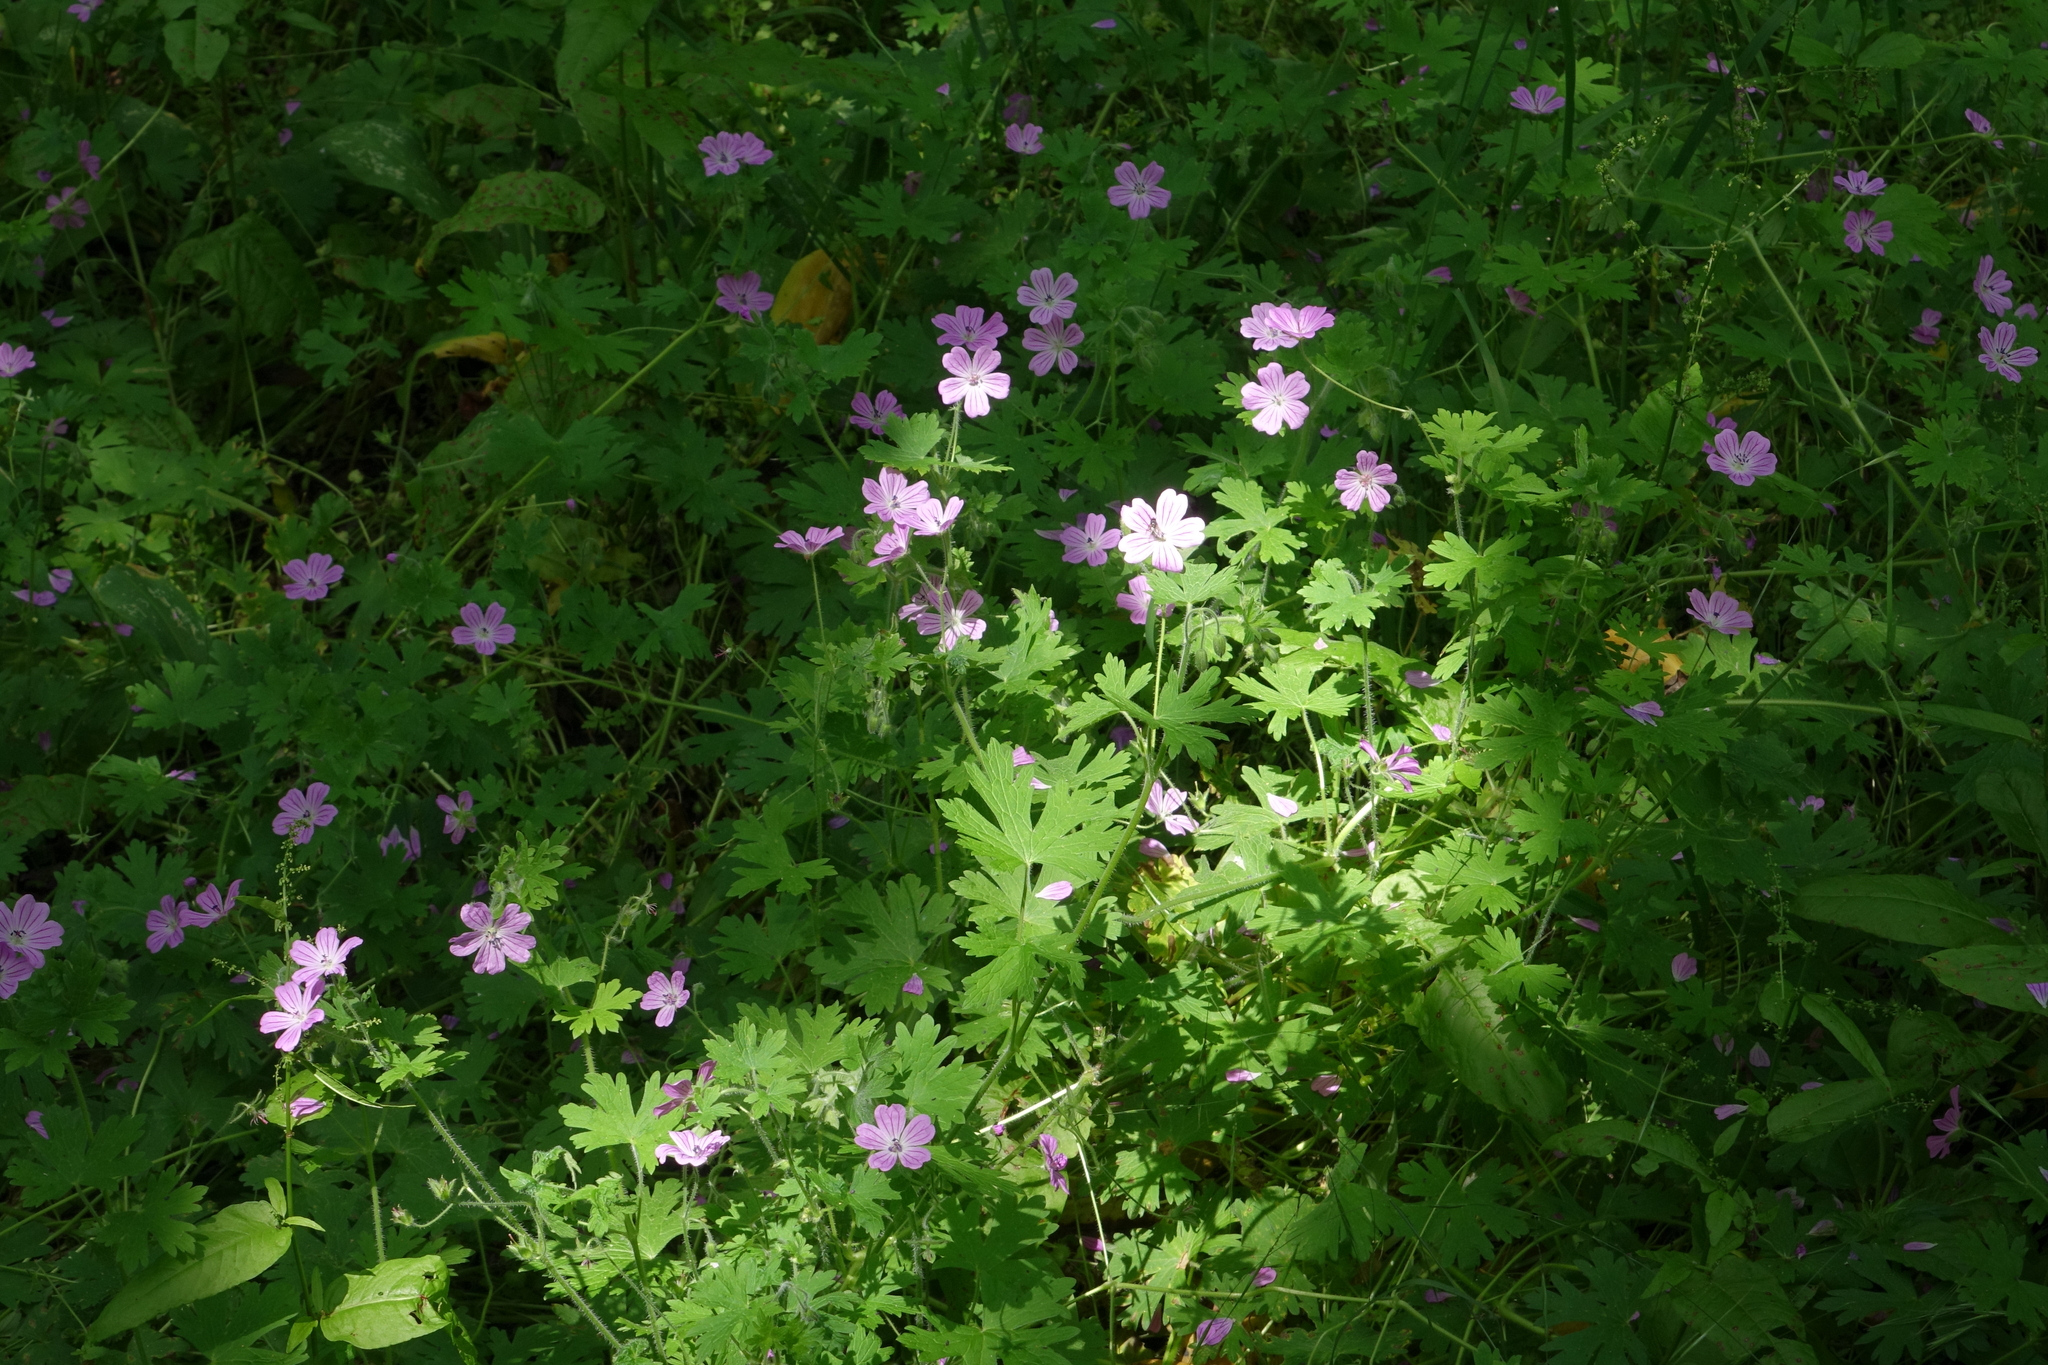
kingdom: Plantae
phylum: Tracheophyta
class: Magnoliopsida
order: Geraniales
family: Geraniaceae
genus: Geranium
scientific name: Geranium albanum
